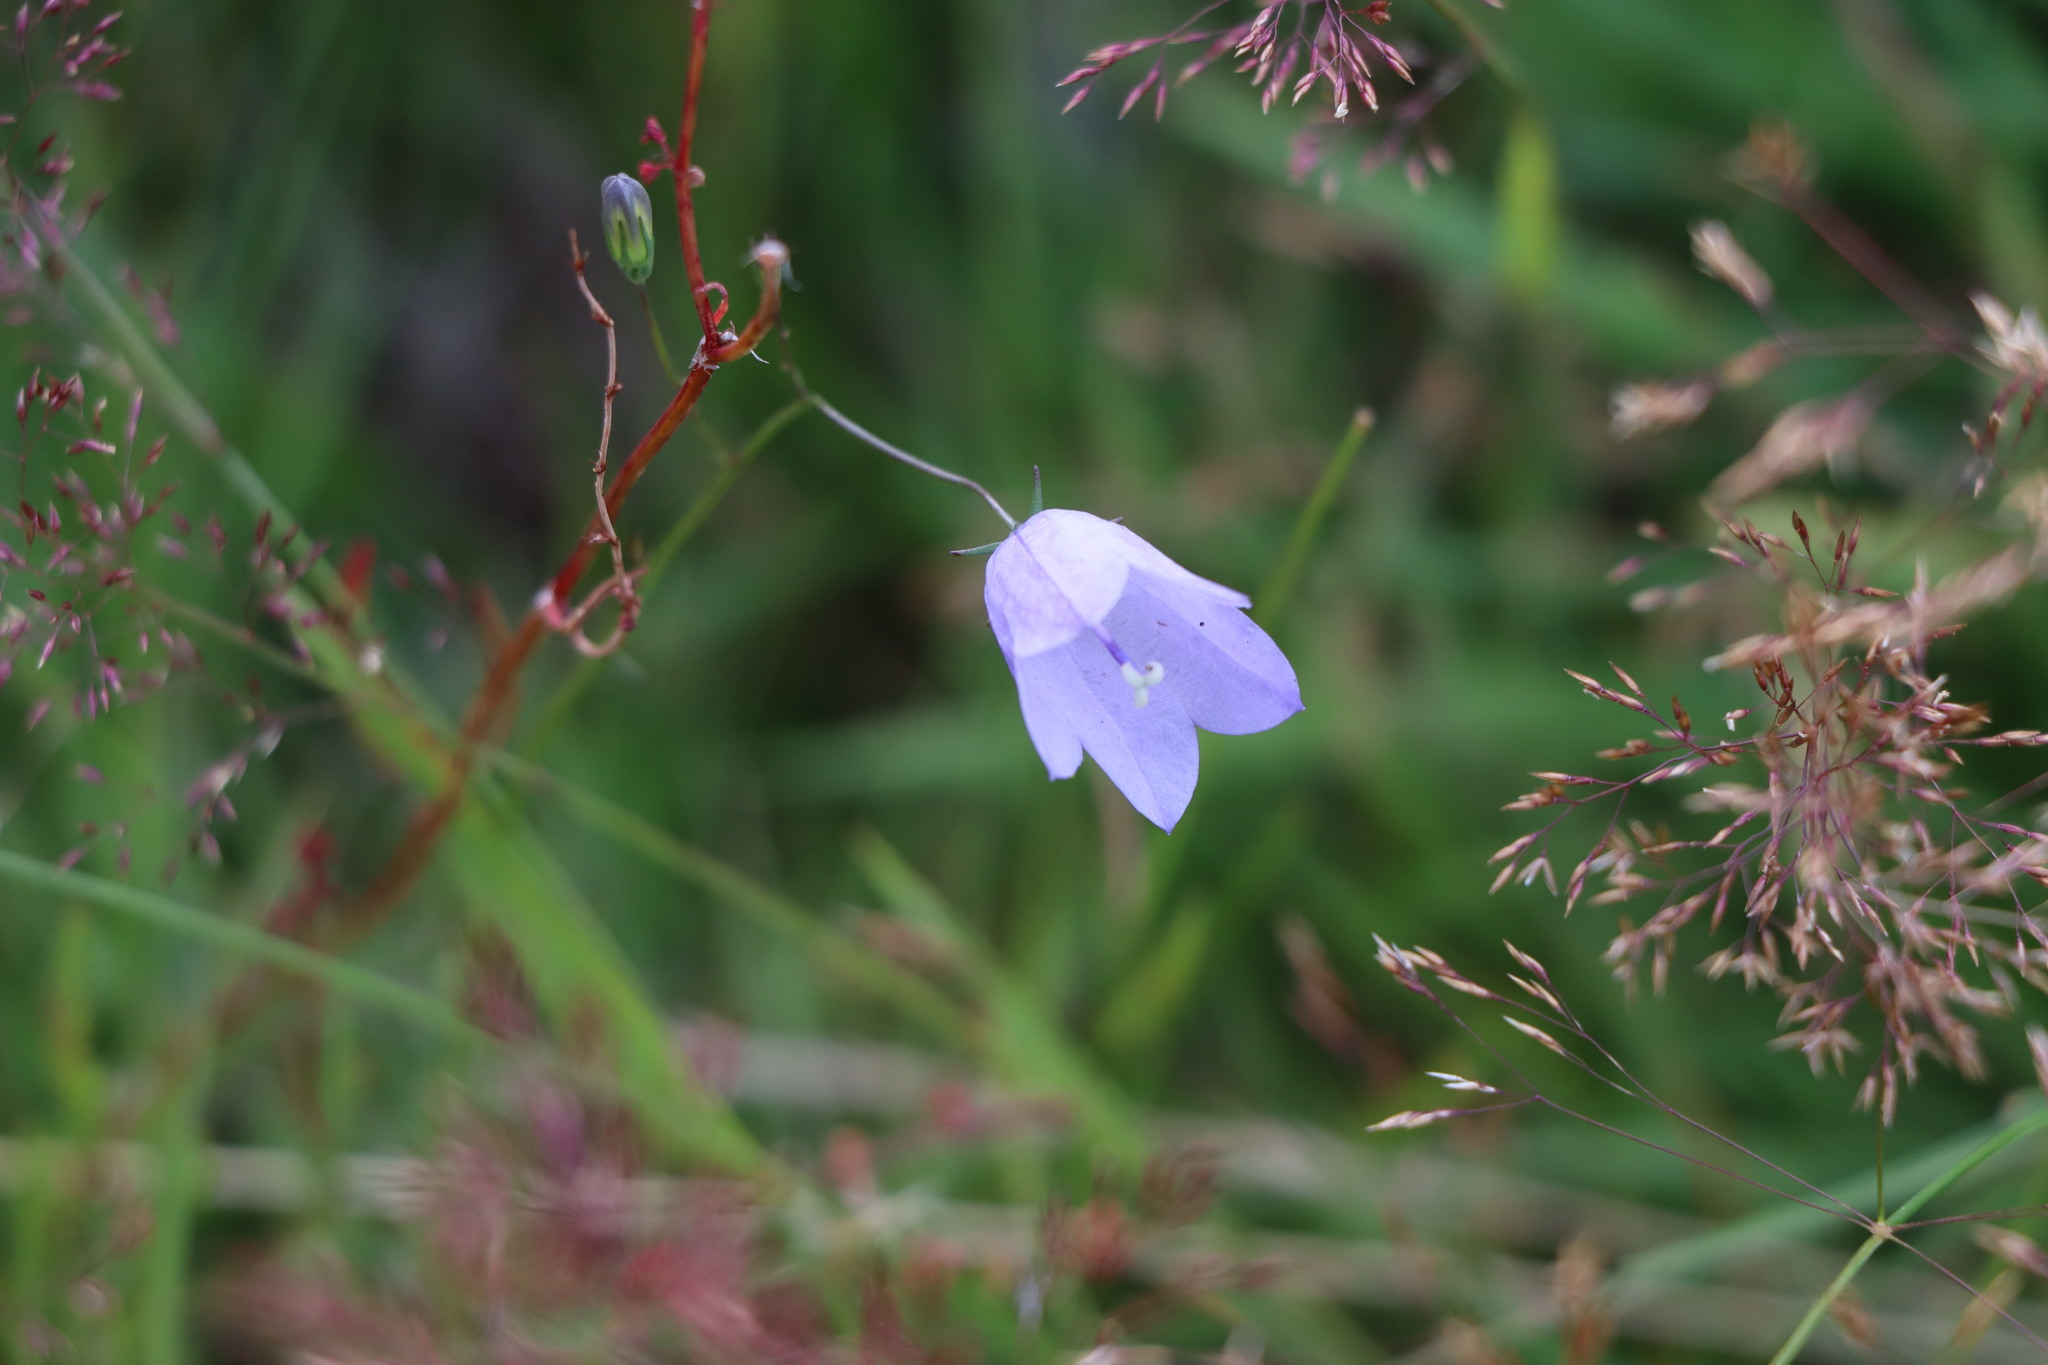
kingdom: Plantae
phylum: Tracheophyta
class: Magnoliopsida
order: Asterales
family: Campanulaceae
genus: Campanula
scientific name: Campanula rotundifolia
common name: Harebell
